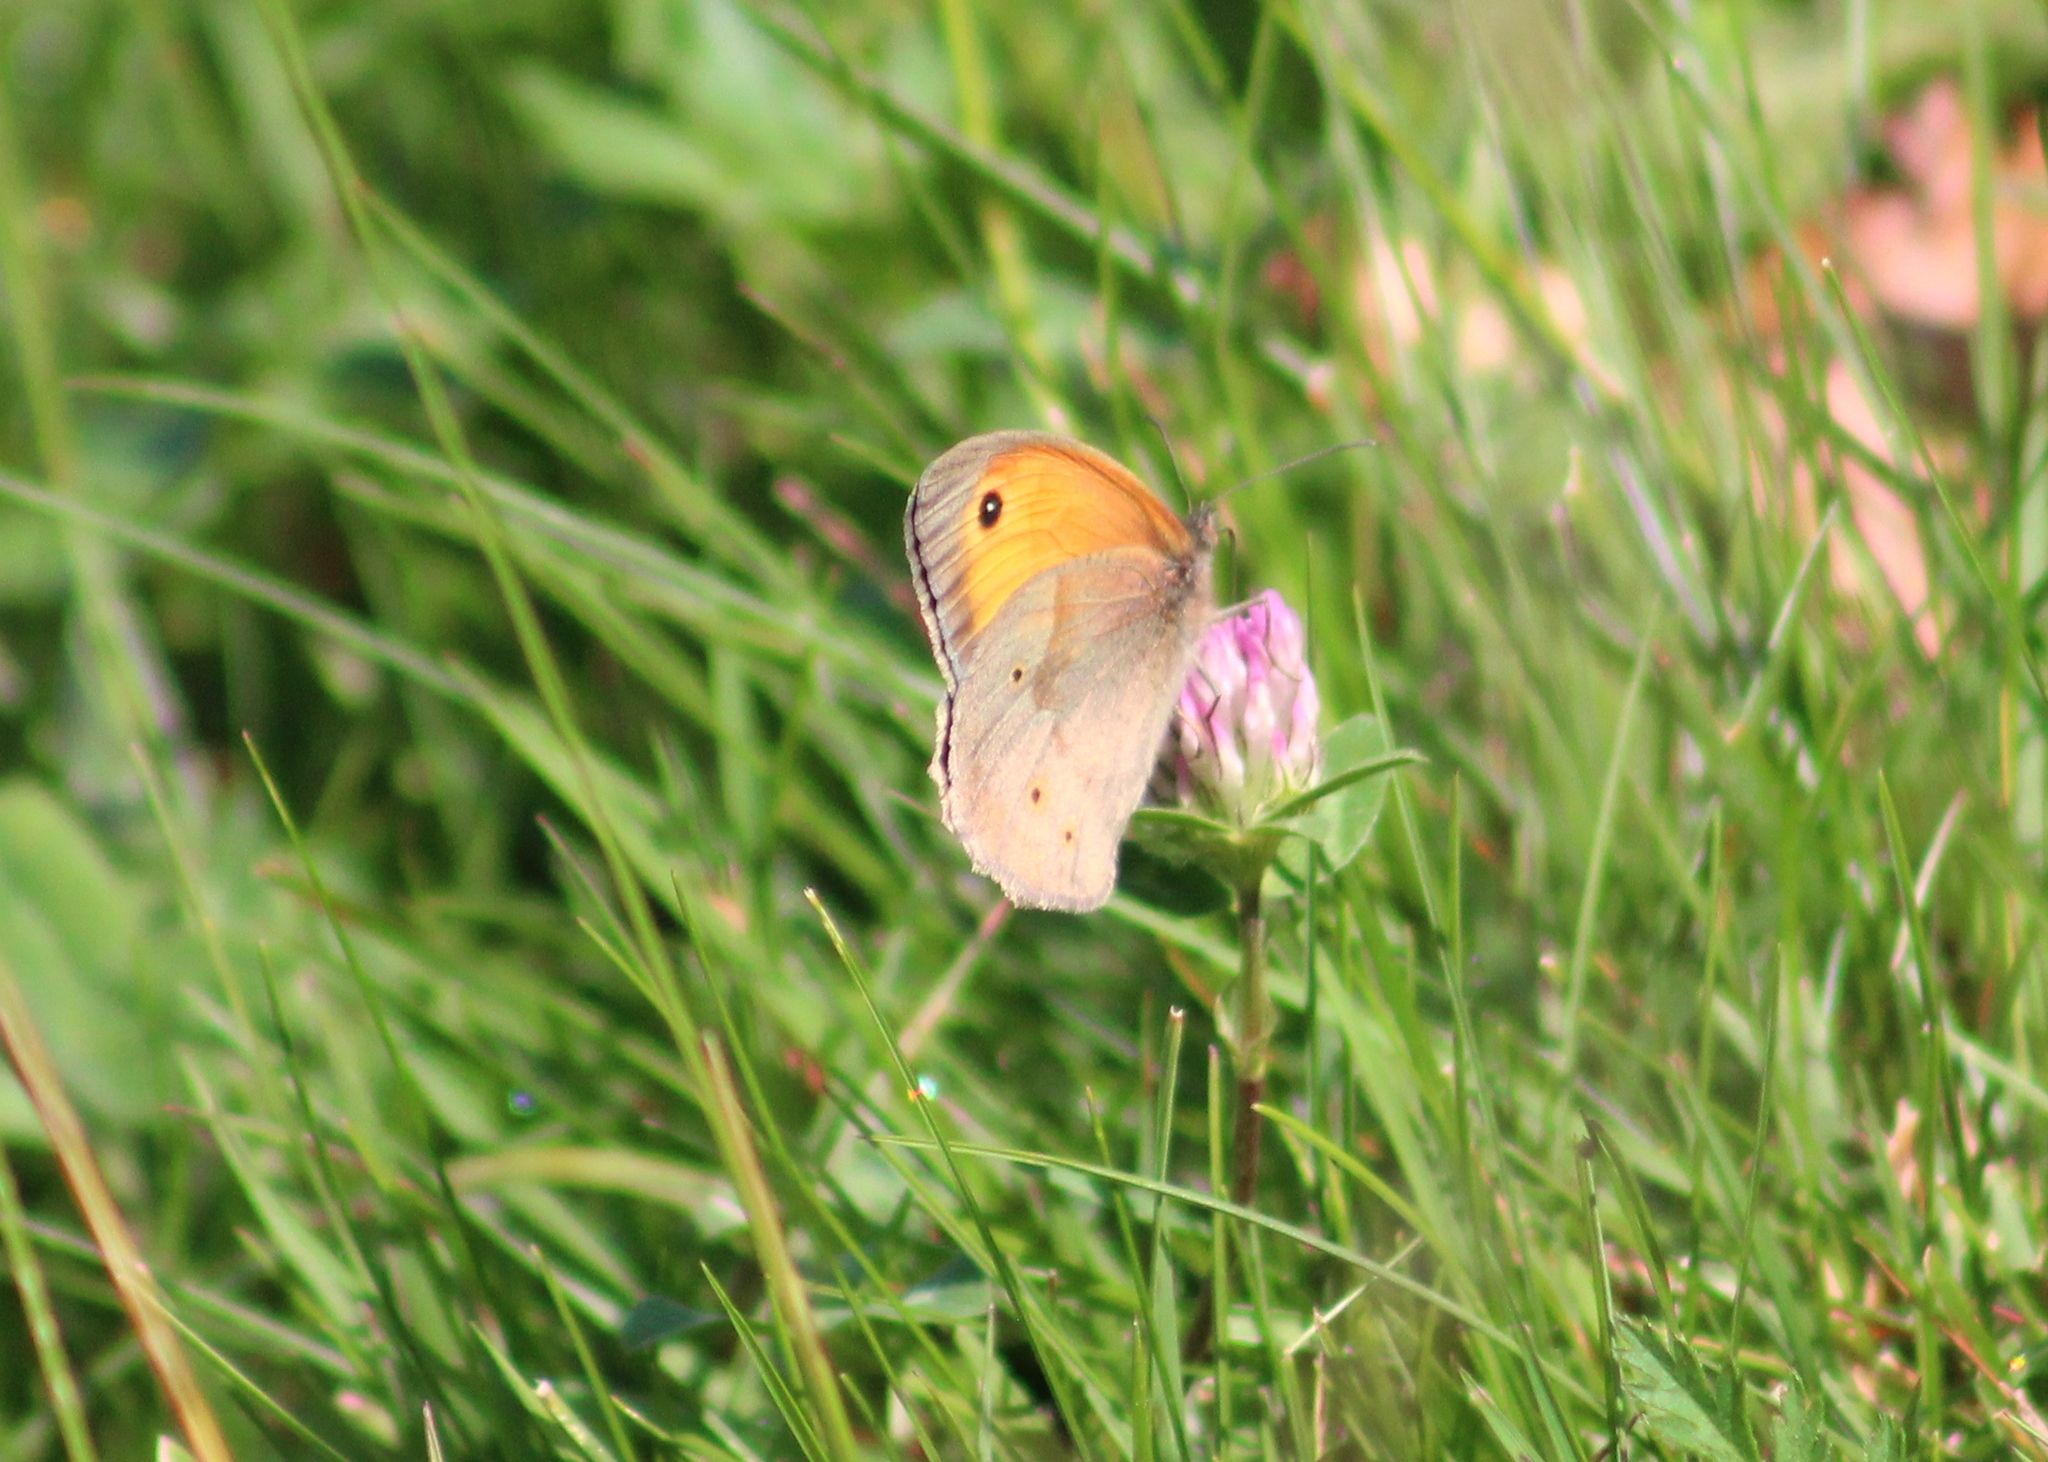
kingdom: Animalia
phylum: Arthropoda
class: Insecta
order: Lepidoptera
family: Nymphalidae
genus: Maniola
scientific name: Maniola jurtina
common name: Meadow brown
